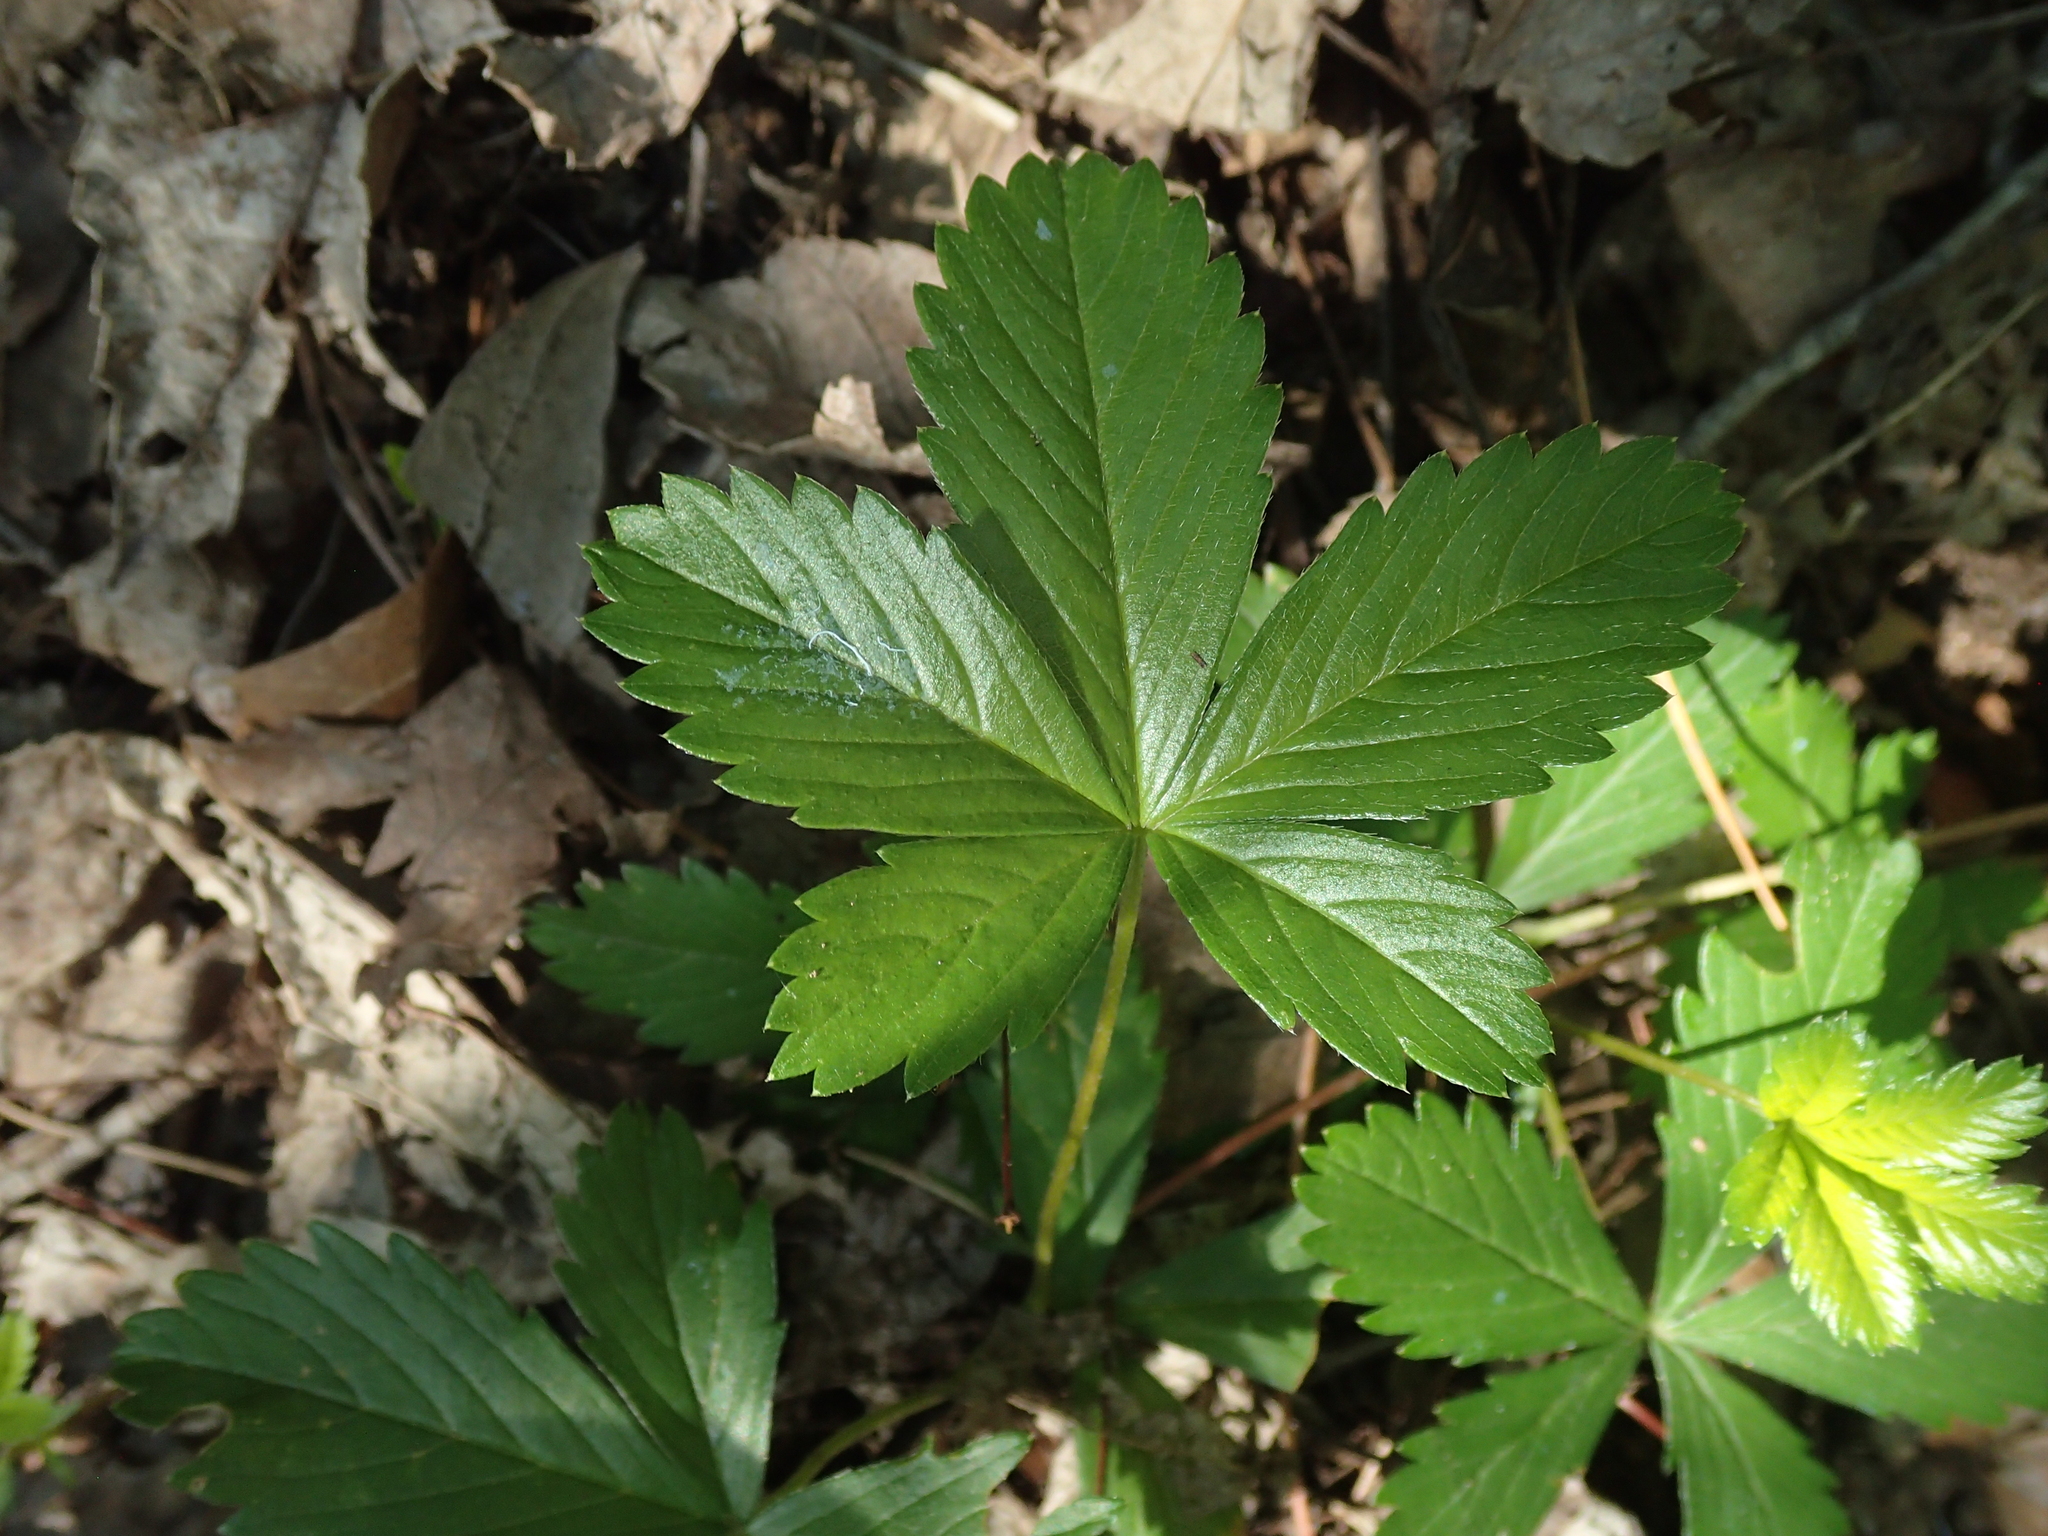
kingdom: Plantae
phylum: Tracheophyta
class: Magnoliopsida
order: Rosales
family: Rosaceae
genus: Potentilla
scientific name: Potentilla simplex
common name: Old field cinquefoil
